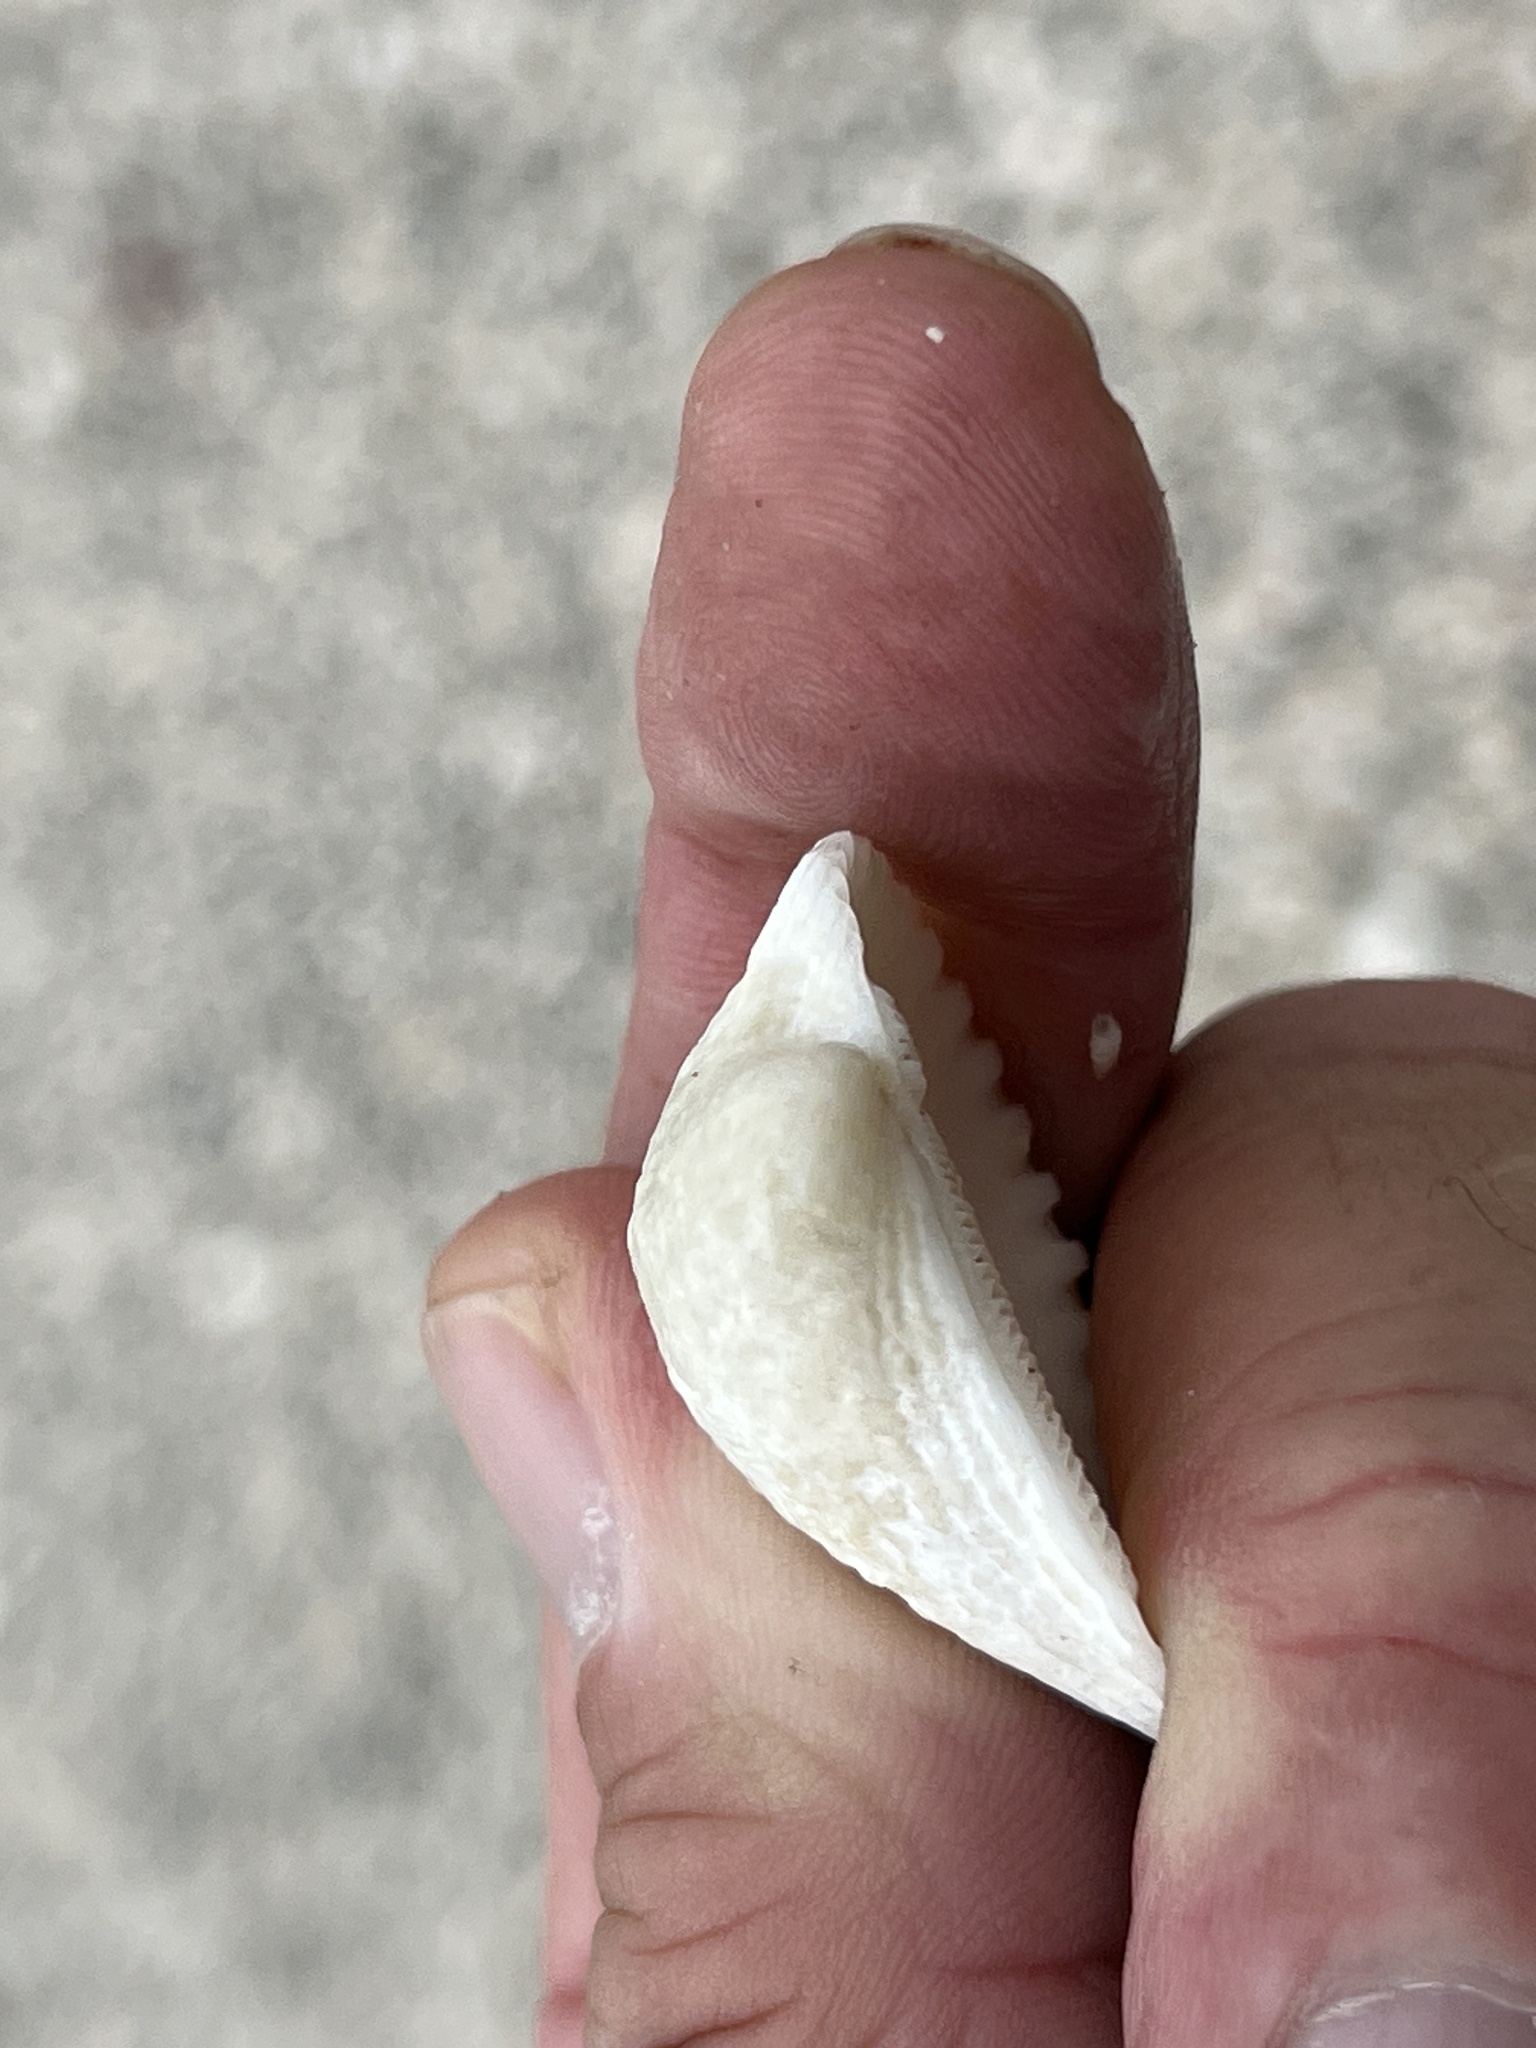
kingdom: Animalia
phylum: Mollusca
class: Bivalvia
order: Arcida
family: Arcidae
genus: Lunarca
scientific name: Lunarca ovalis
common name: Blood ark
